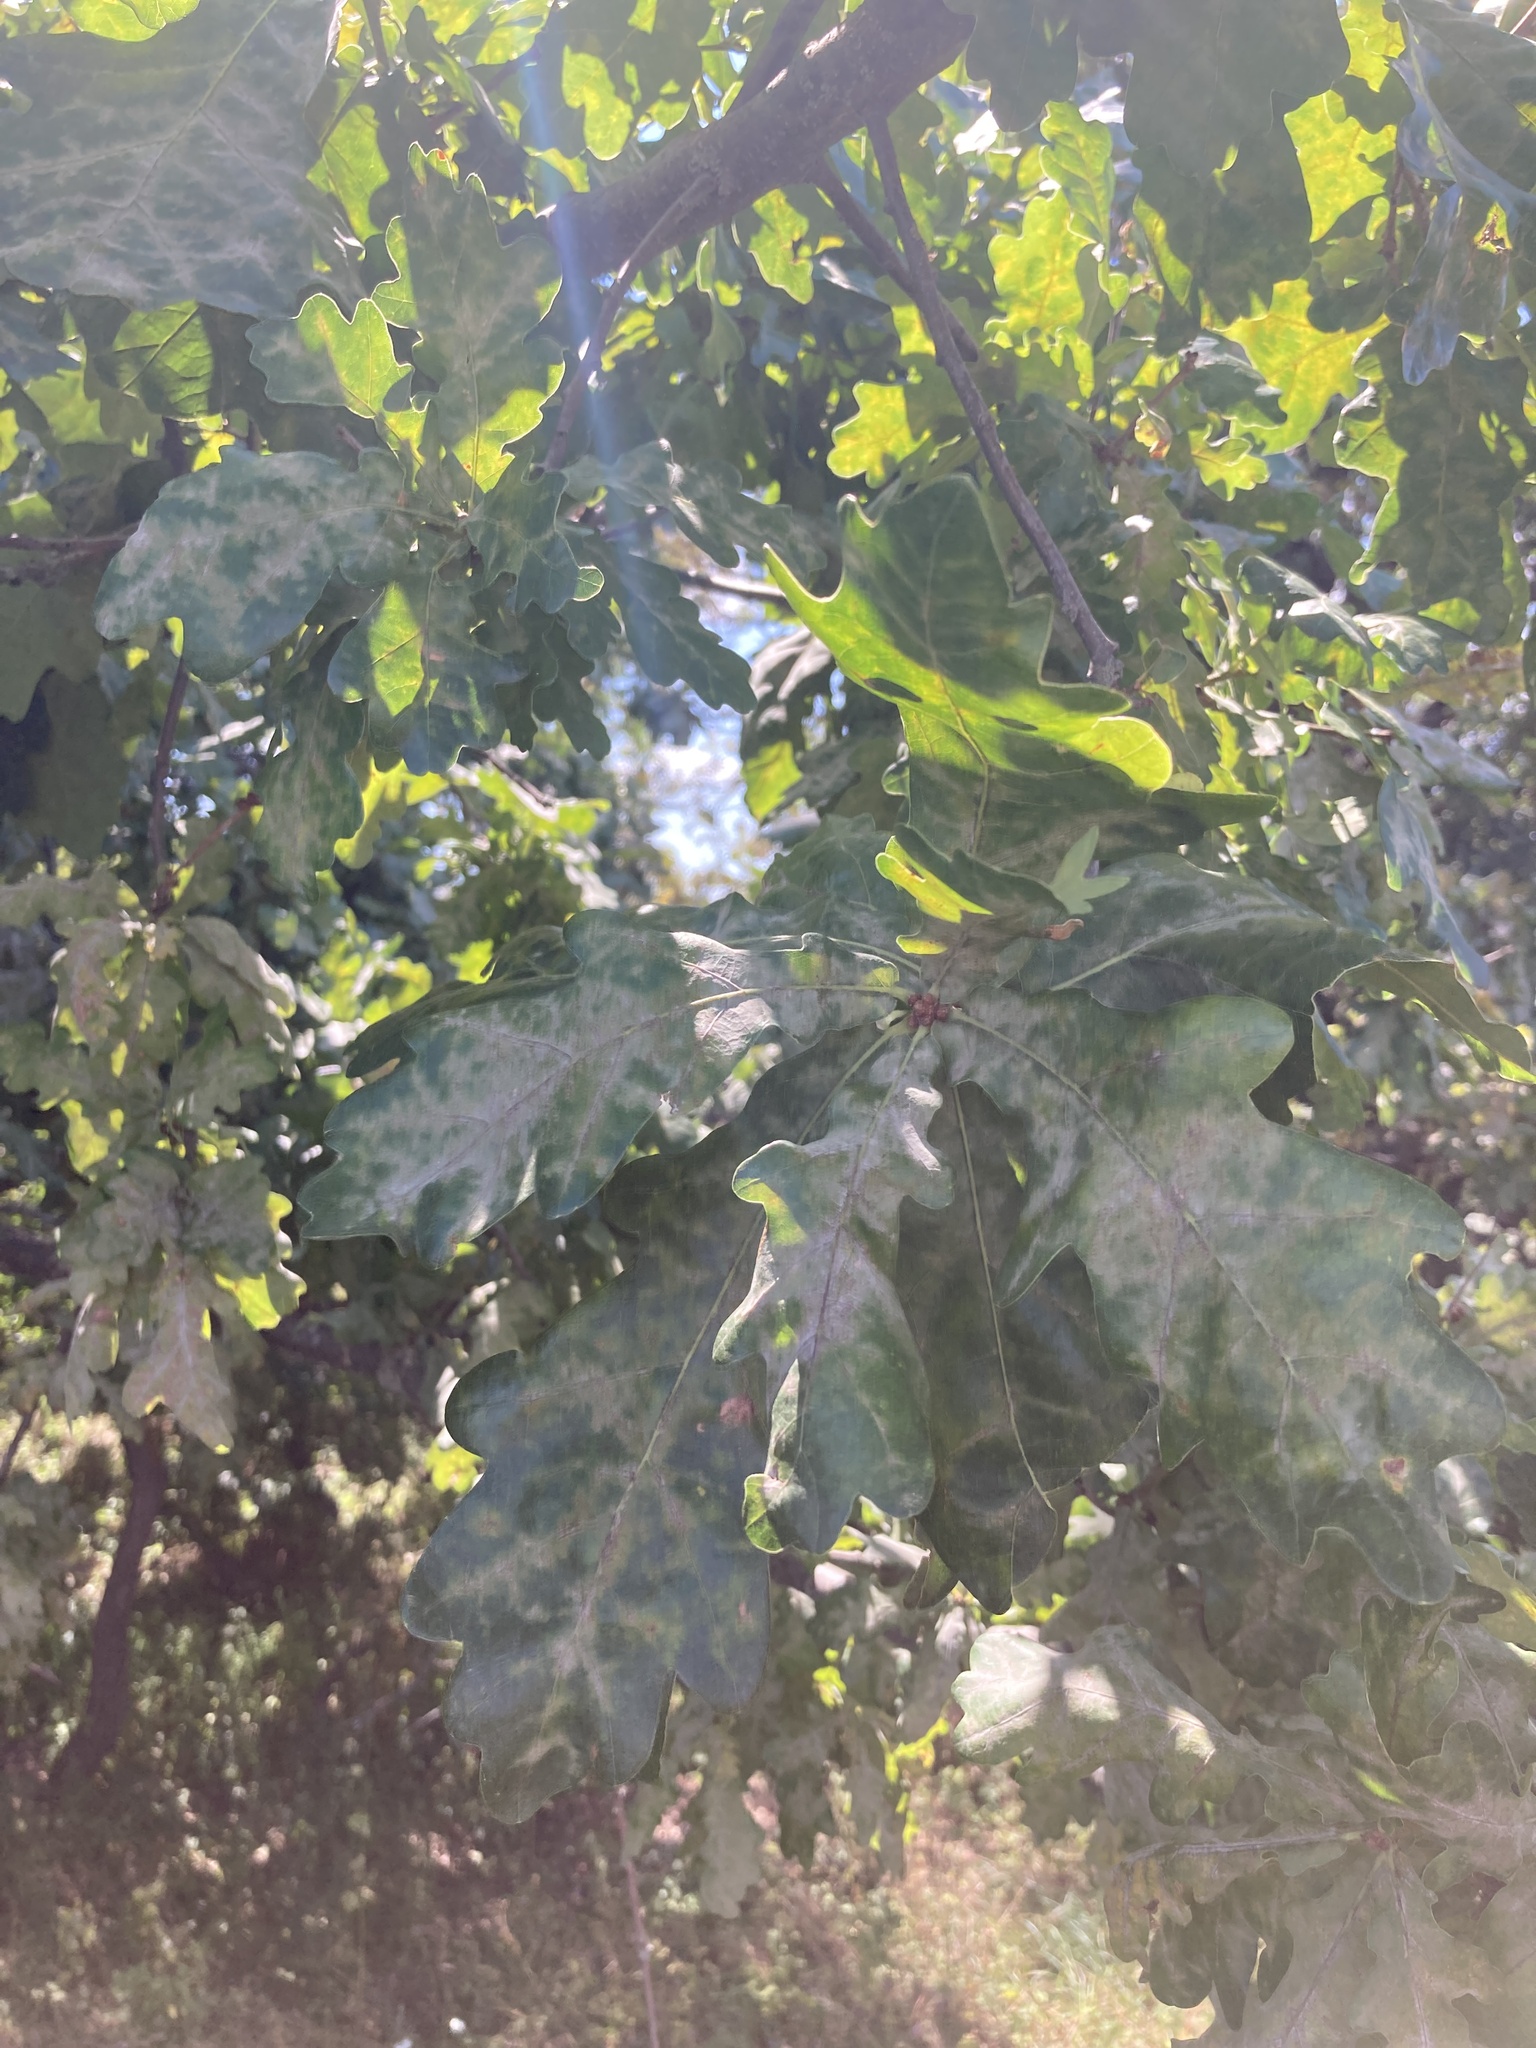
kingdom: Plantae
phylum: Tracheophyta
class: Magnoliopsida
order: Fagales
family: Fagaceae
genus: Quercus
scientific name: Quercus robur
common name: Pedunculate oak
